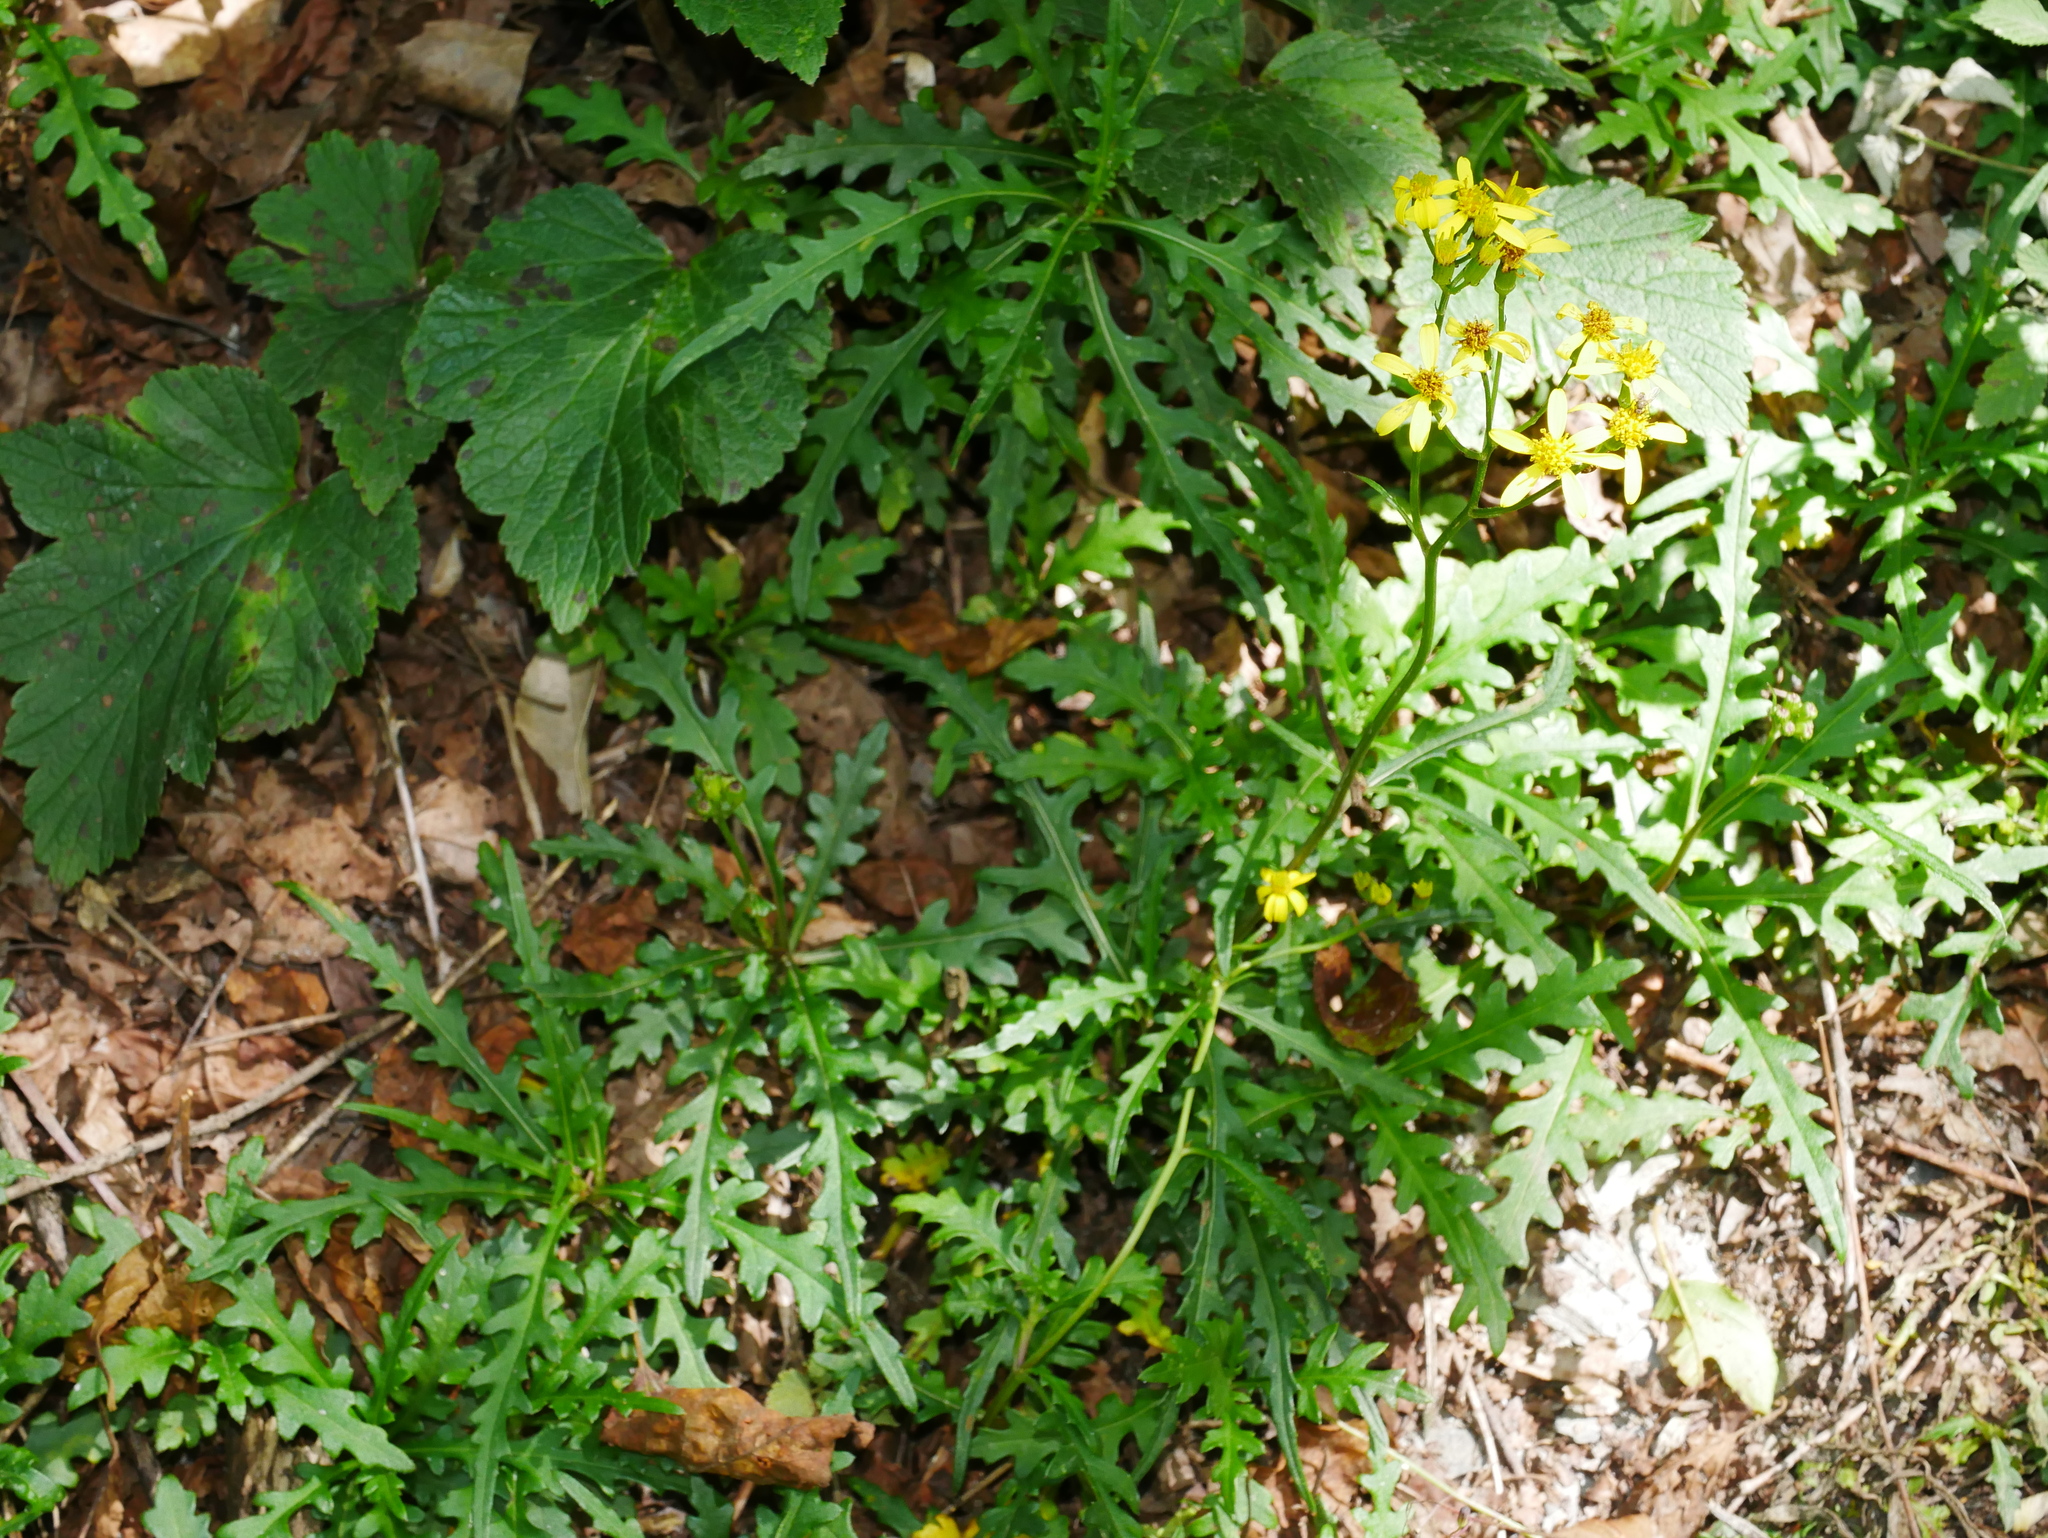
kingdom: Plantae
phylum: Tracheophyta
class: Magnoliopsida
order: Asterales
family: Asteraceae
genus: Jacobaea
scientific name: Jacobaea morrisonensis
